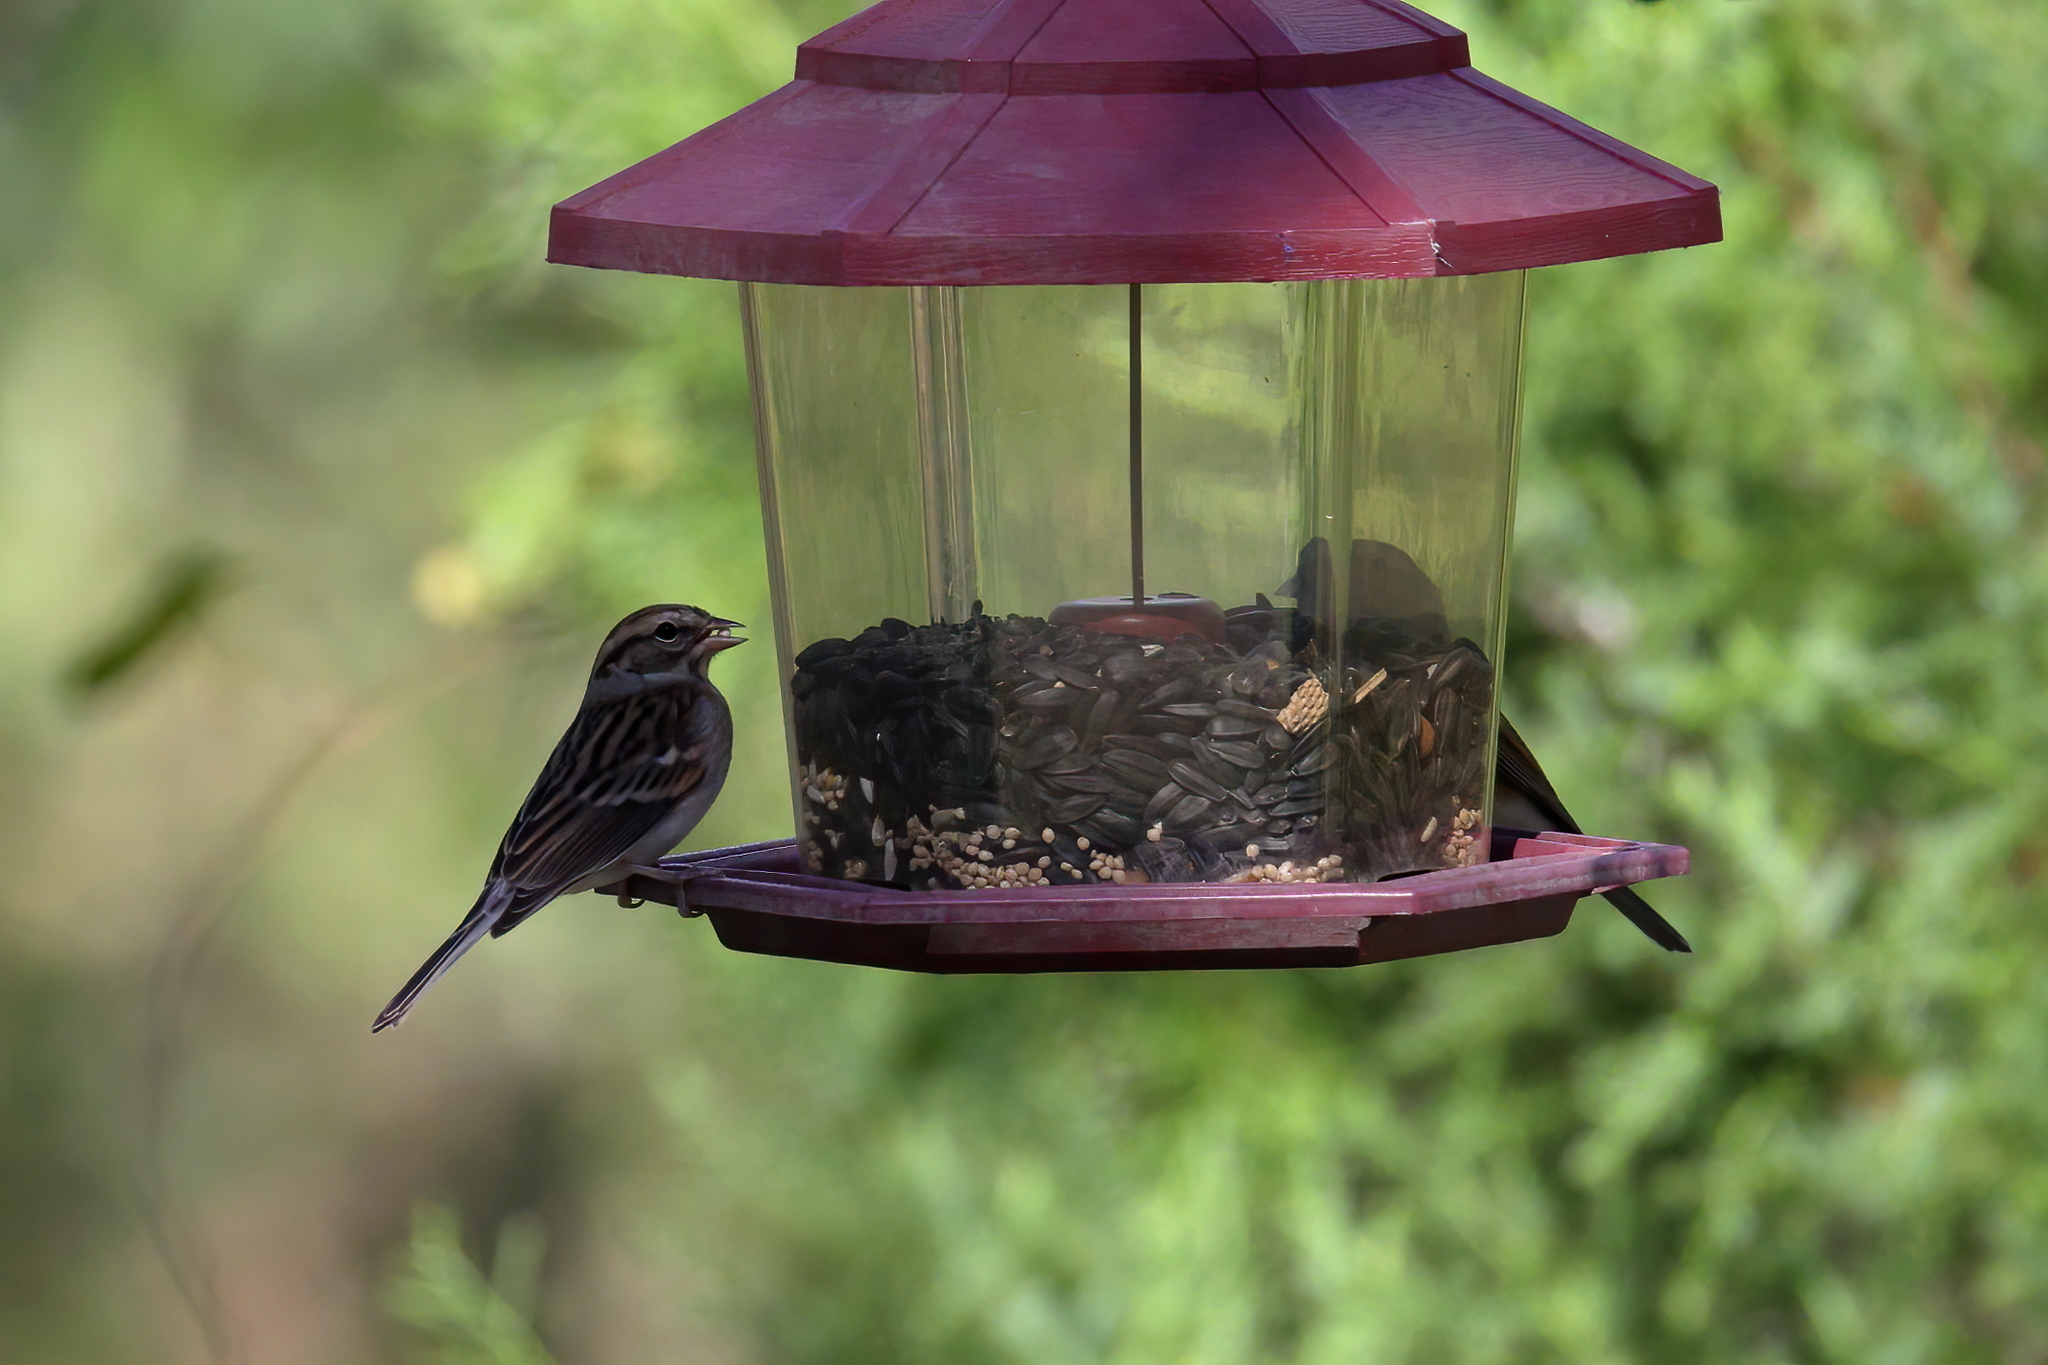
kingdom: Animalia
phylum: Chordata
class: Aves
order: Passeriformes
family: Passerellidae
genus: Spizella
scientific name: Spizella passerina
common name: Chipping sparrow
